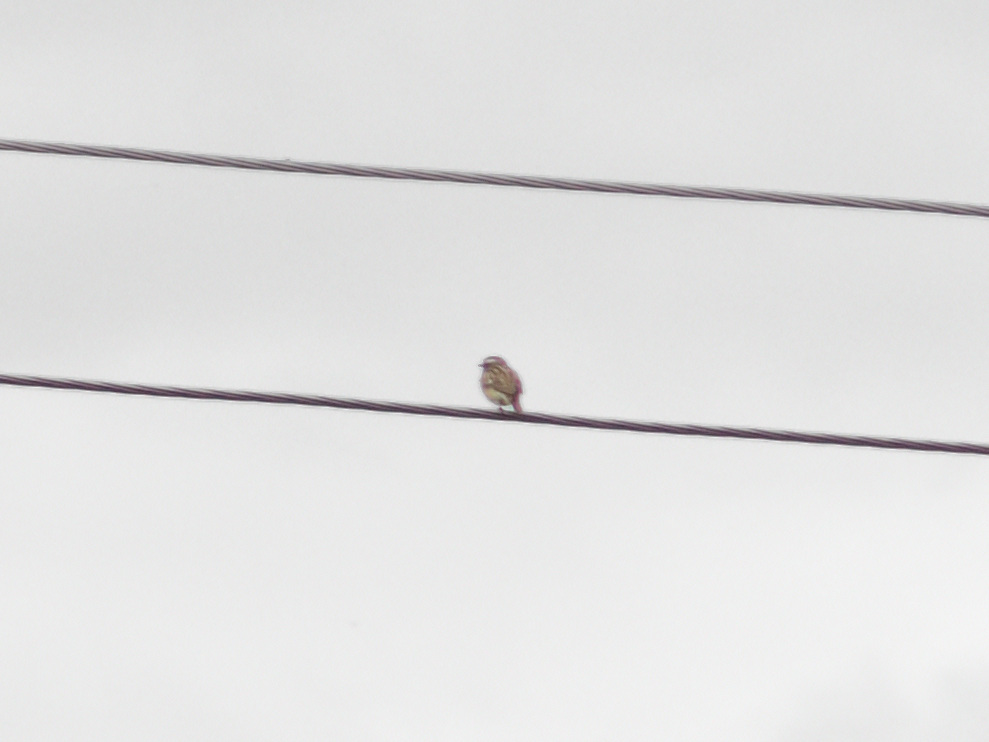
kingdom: Animalia
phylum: Chordata
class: Aves
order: Passeriformes
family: Muscicapidae
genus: Saxicola
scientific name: Saxicola rubetra
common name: Whinchat
